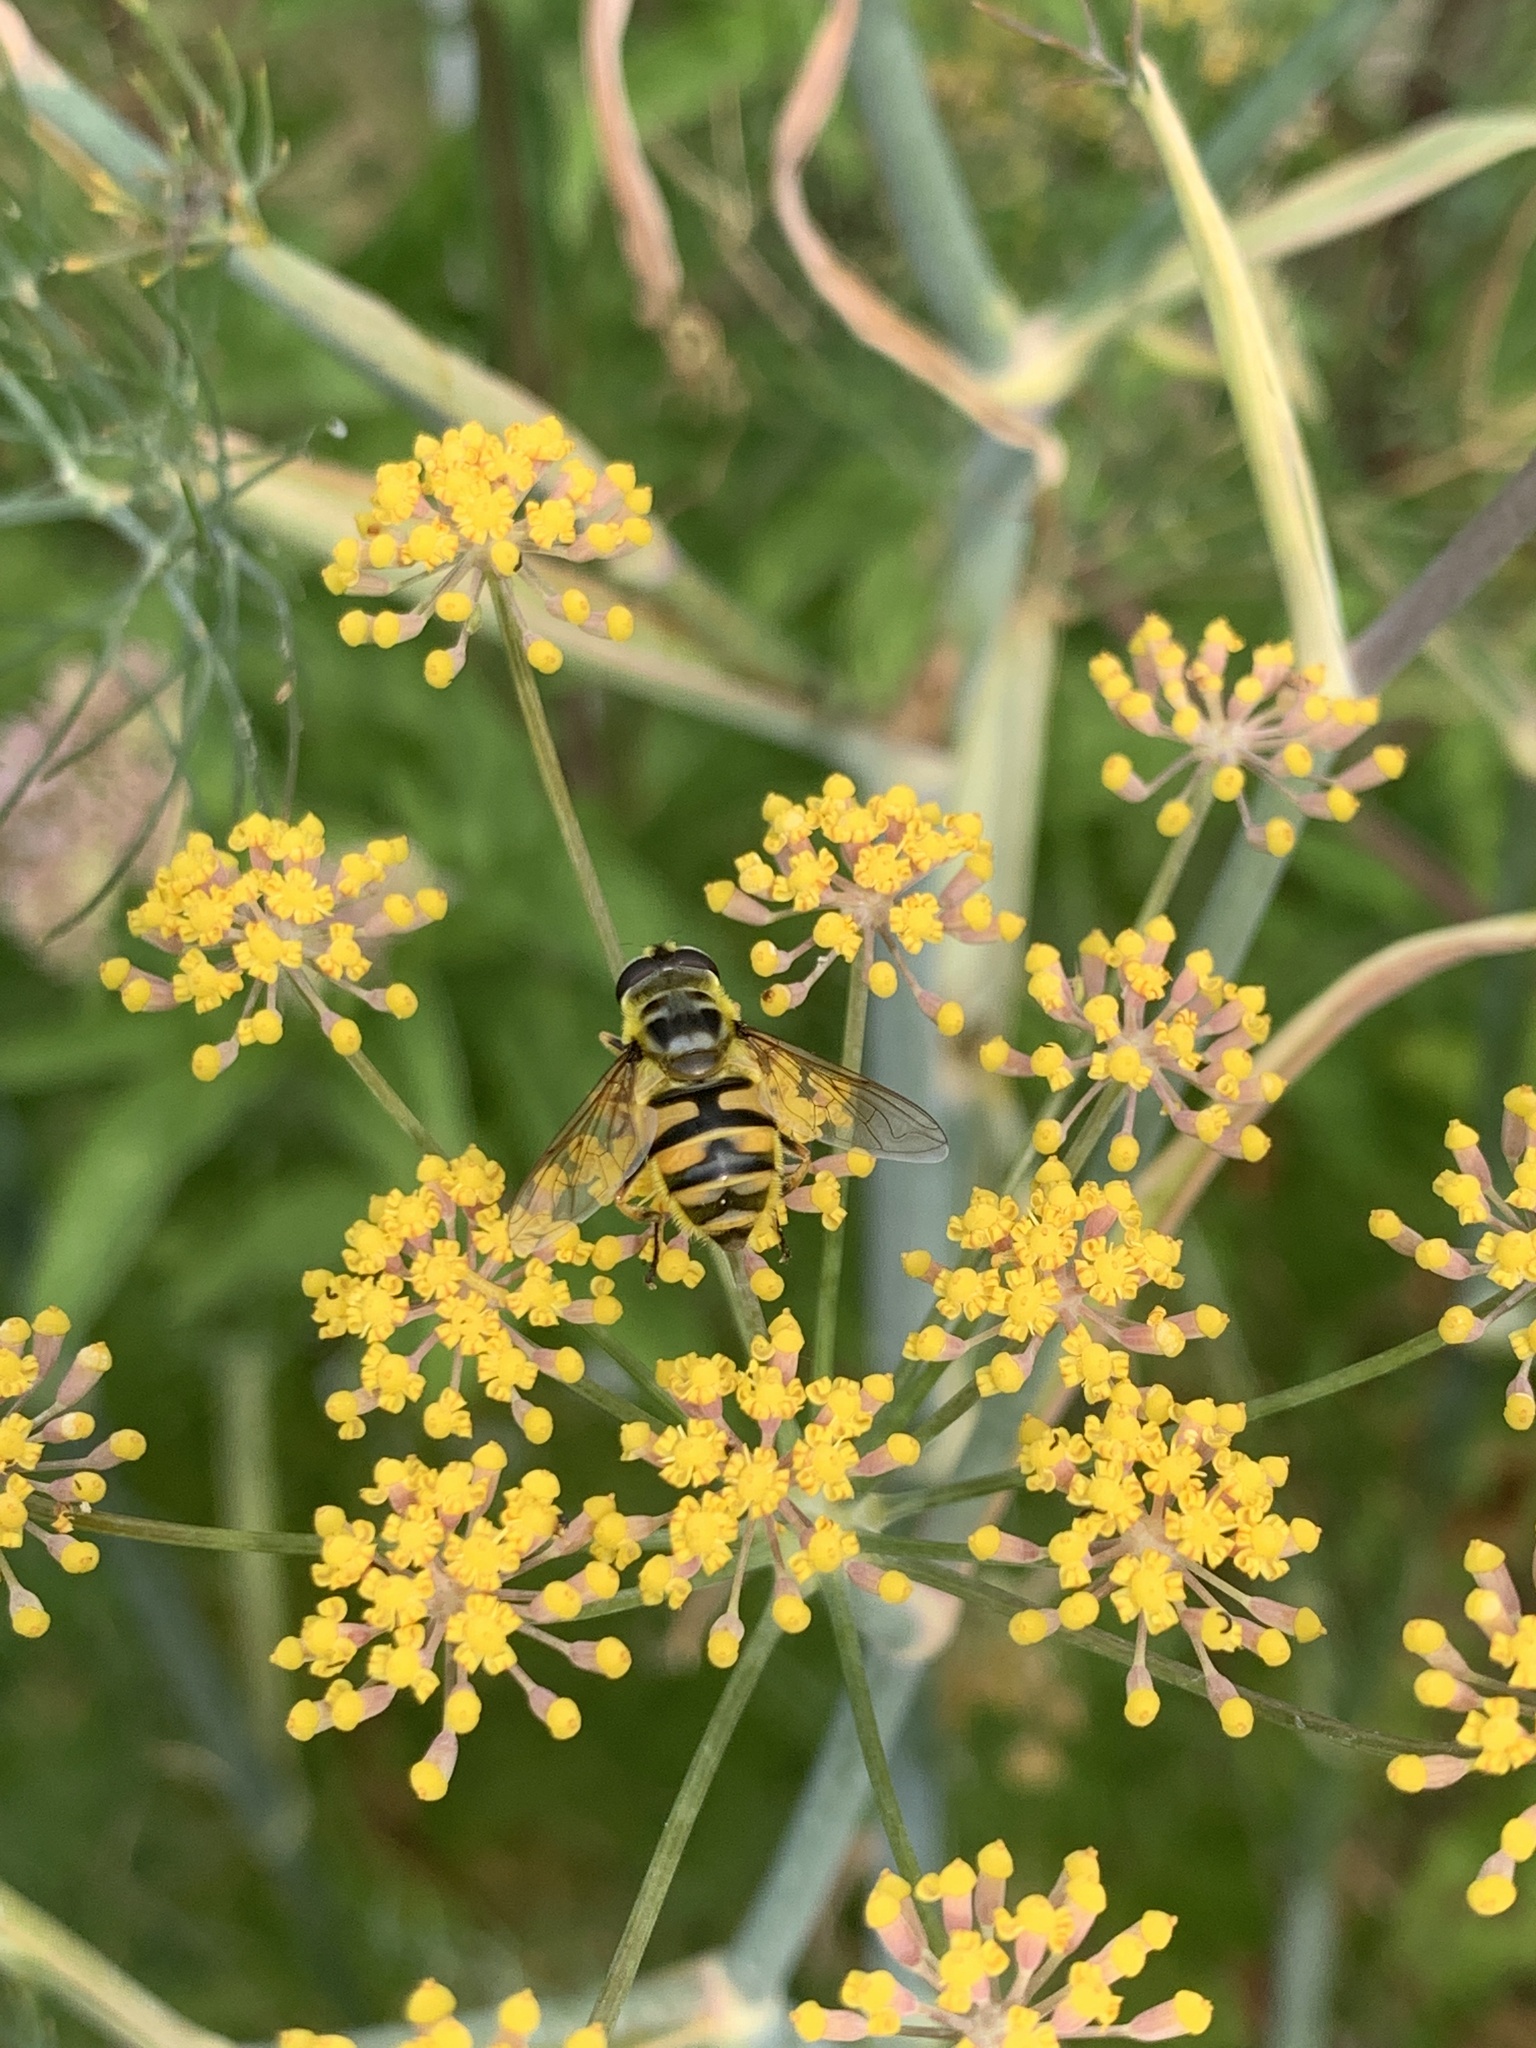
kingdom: Animalia
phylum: Arthropoda
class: Insecta
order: Diptera
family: Syrphidae
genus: Myathropa
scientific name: Myathropa florea
